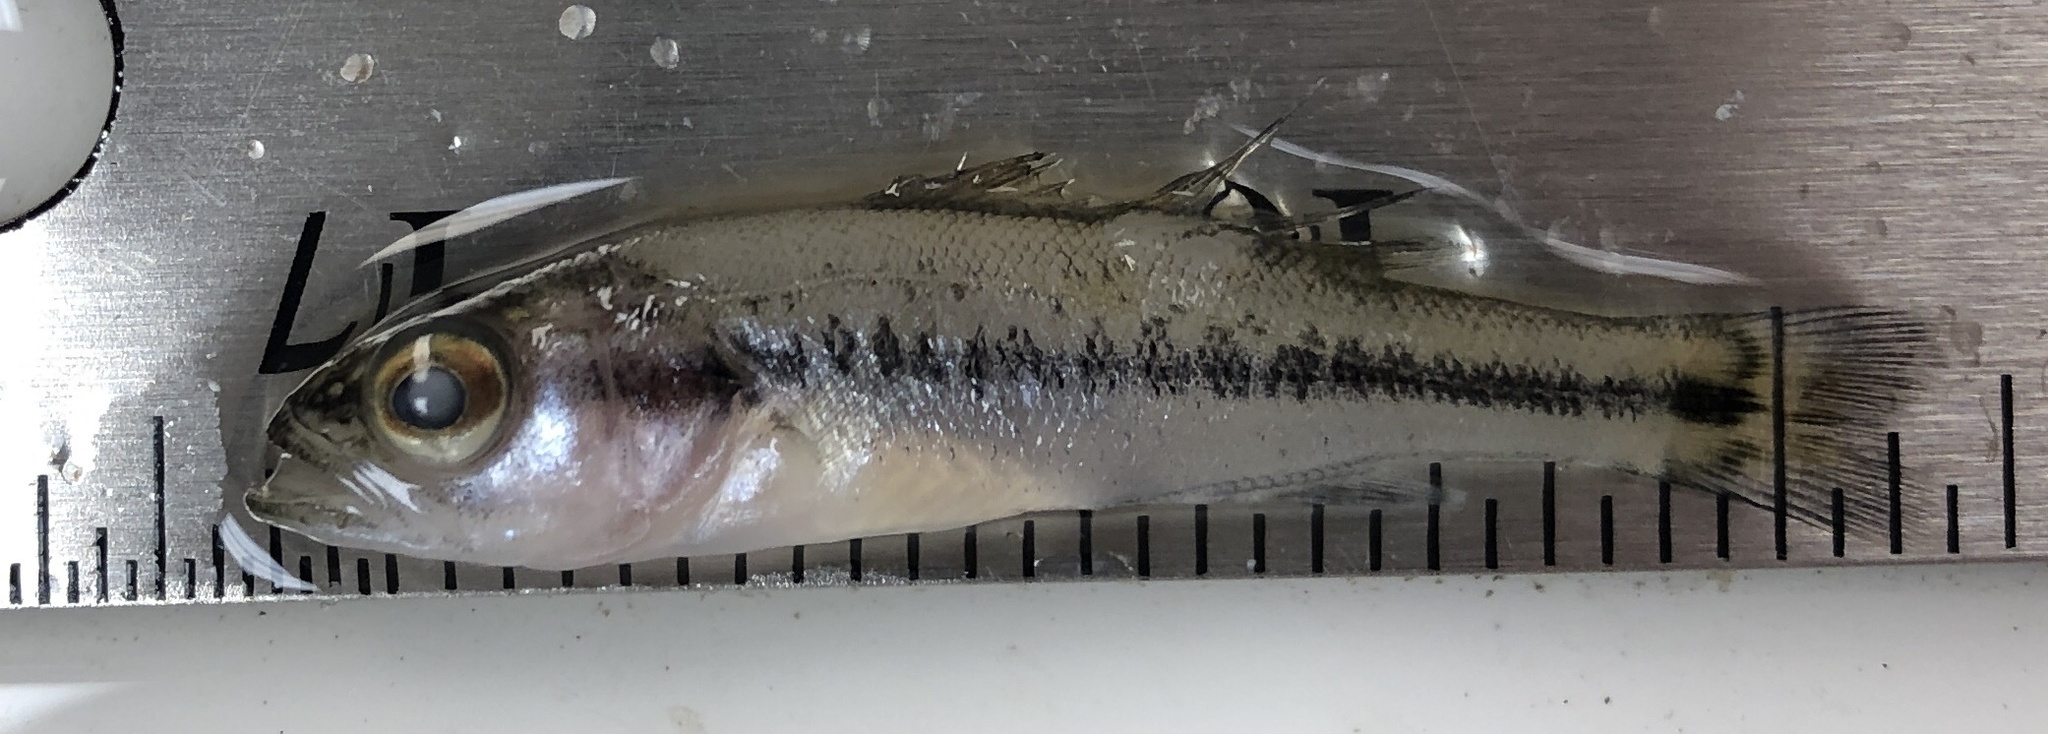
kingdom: Animalia
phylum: Chordata
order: Perciformes
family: Centrarchidae
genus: Micropterus
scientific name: Micropterus
